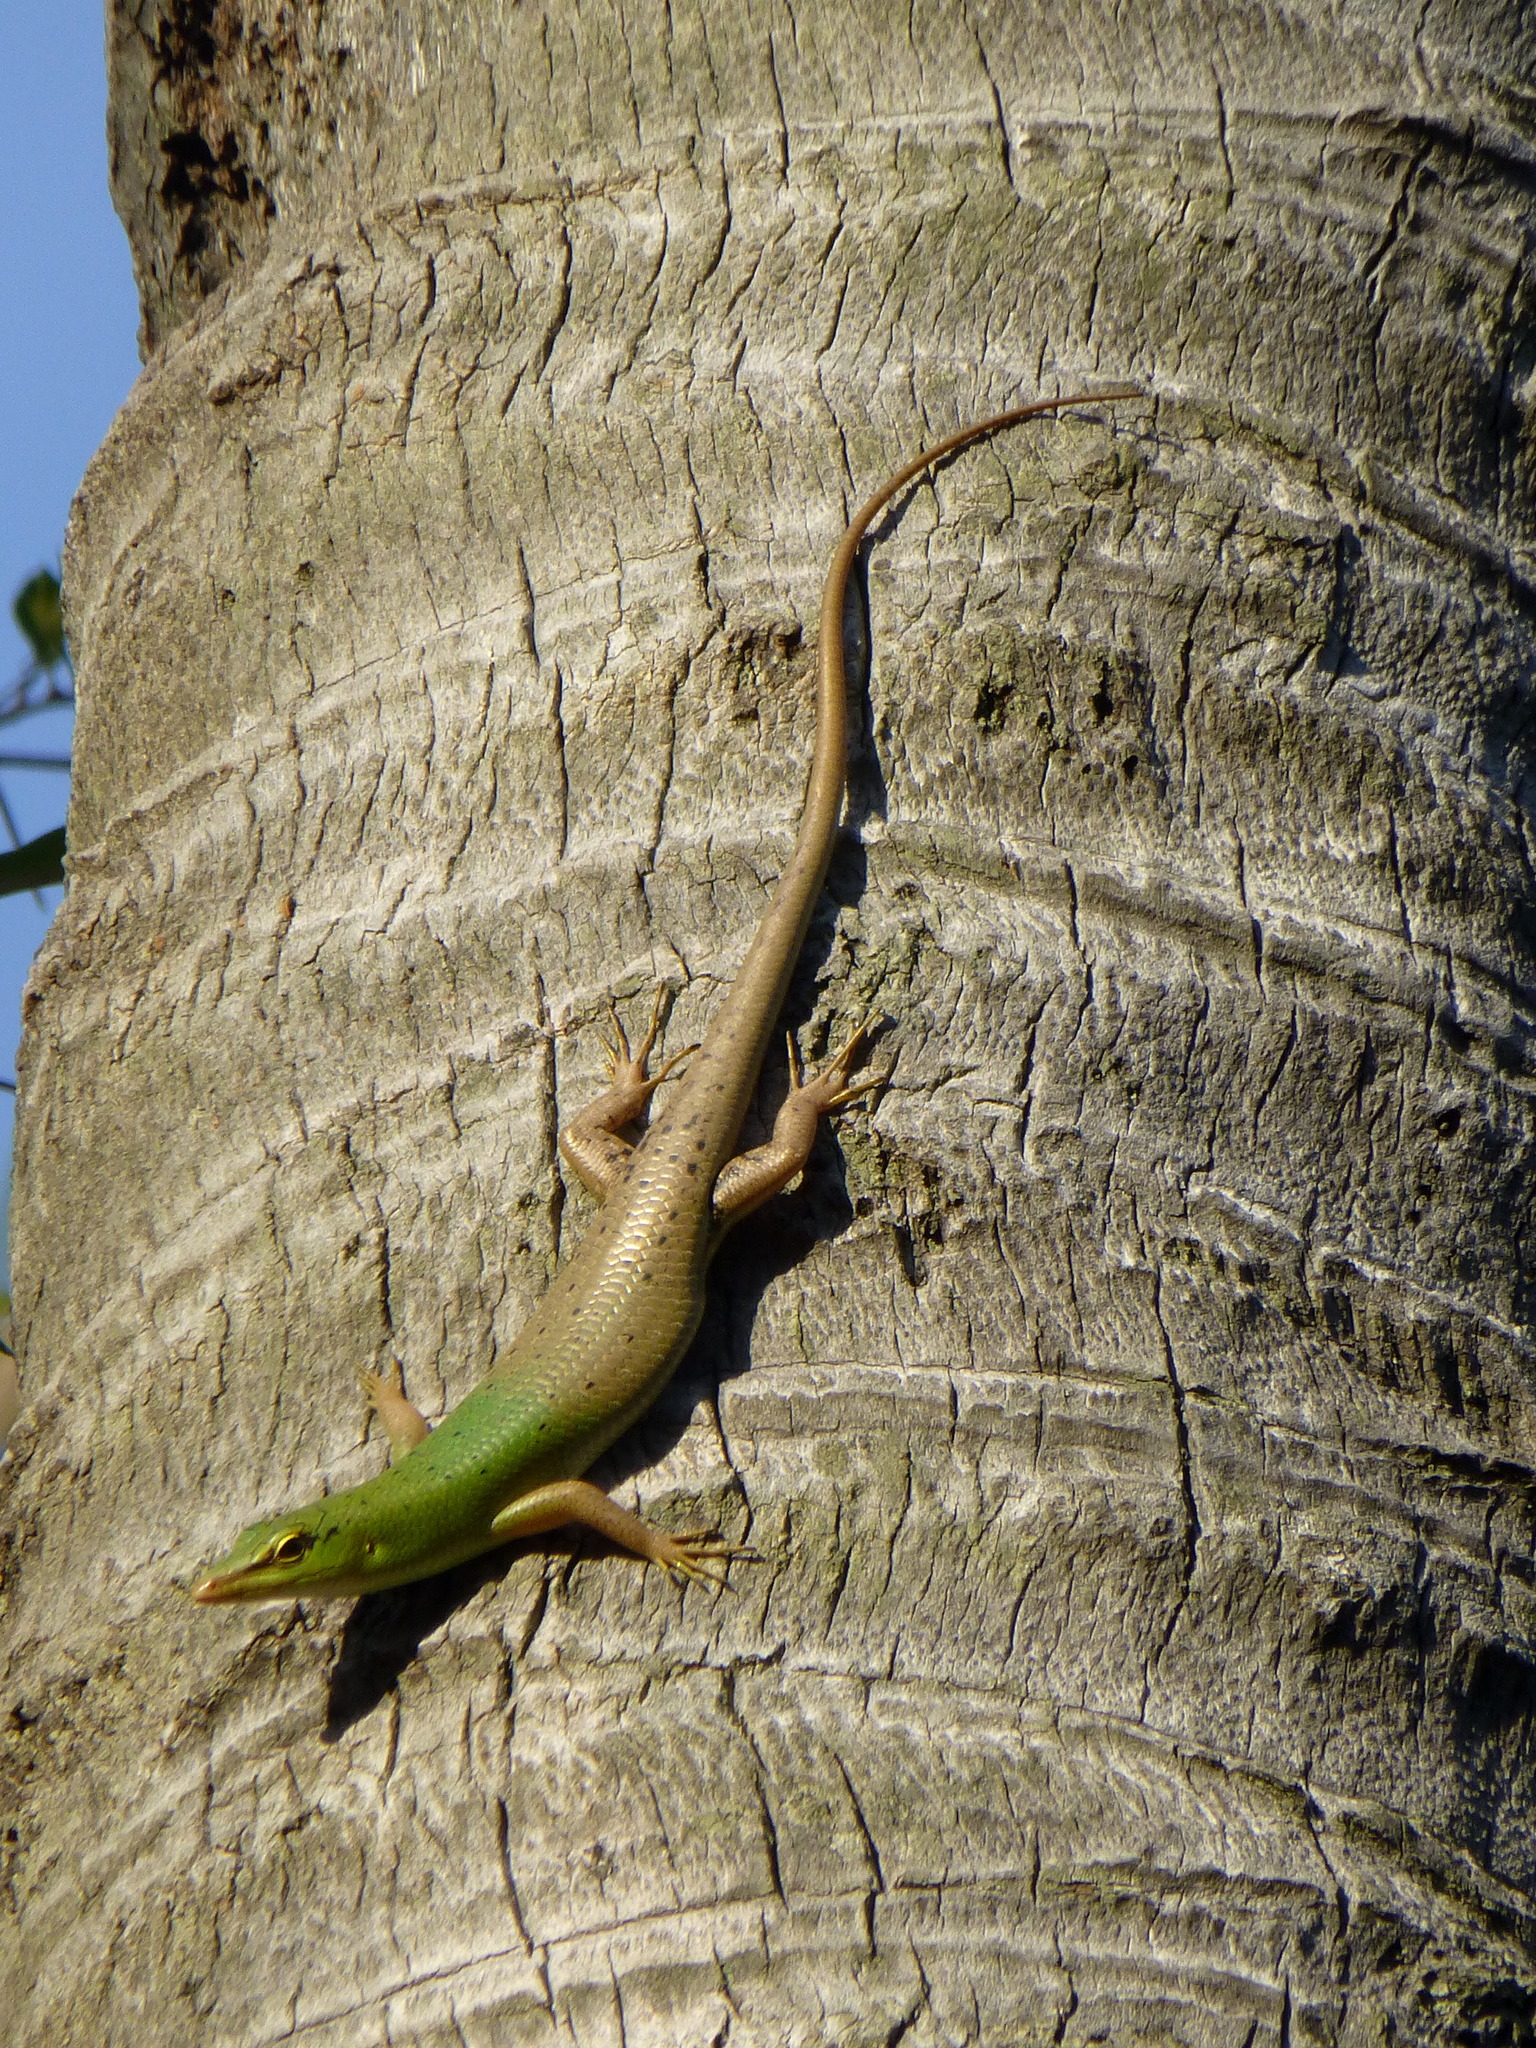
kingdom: Animalia
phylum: Chordata
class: Squamata
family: Scincidae
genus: Lamprolepis
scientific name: Lamprolepis smaragdina
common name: Emerald skink
